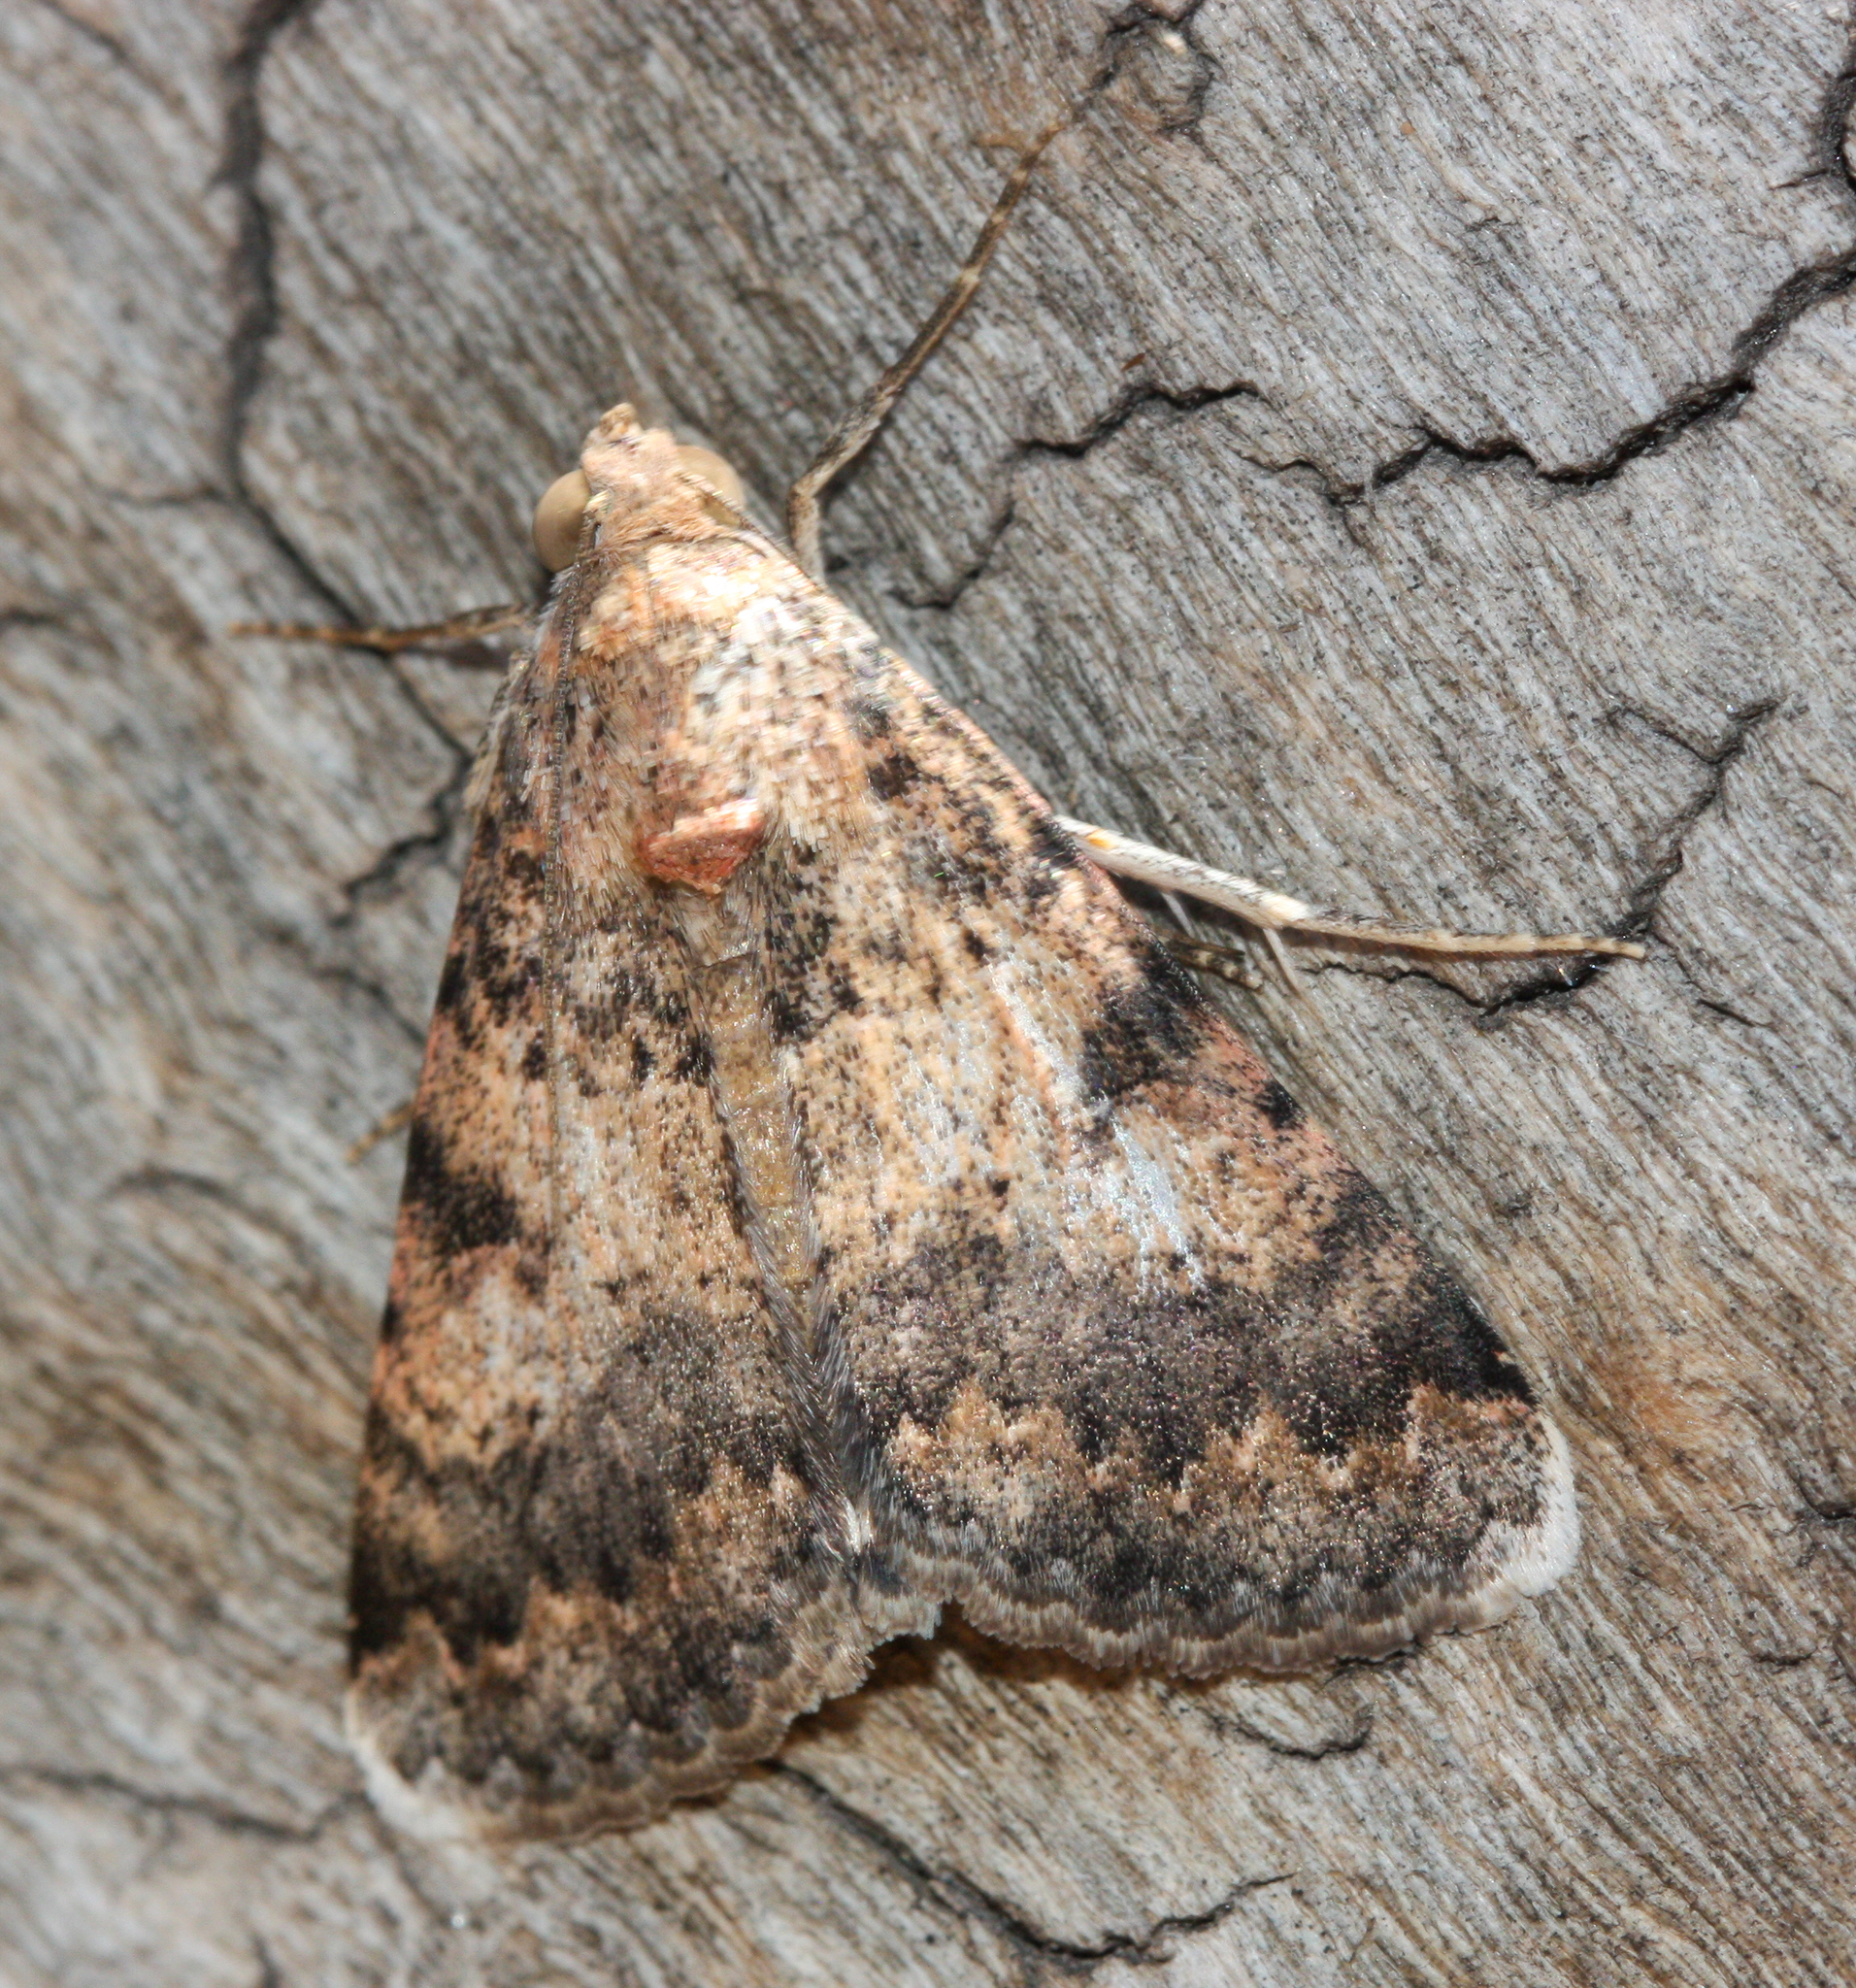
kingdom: Animalia
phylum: Arthropoda
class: Insecta
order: Lepidoptera
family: Erebidae
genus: Melipotis
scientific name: Melipotis jucunda
